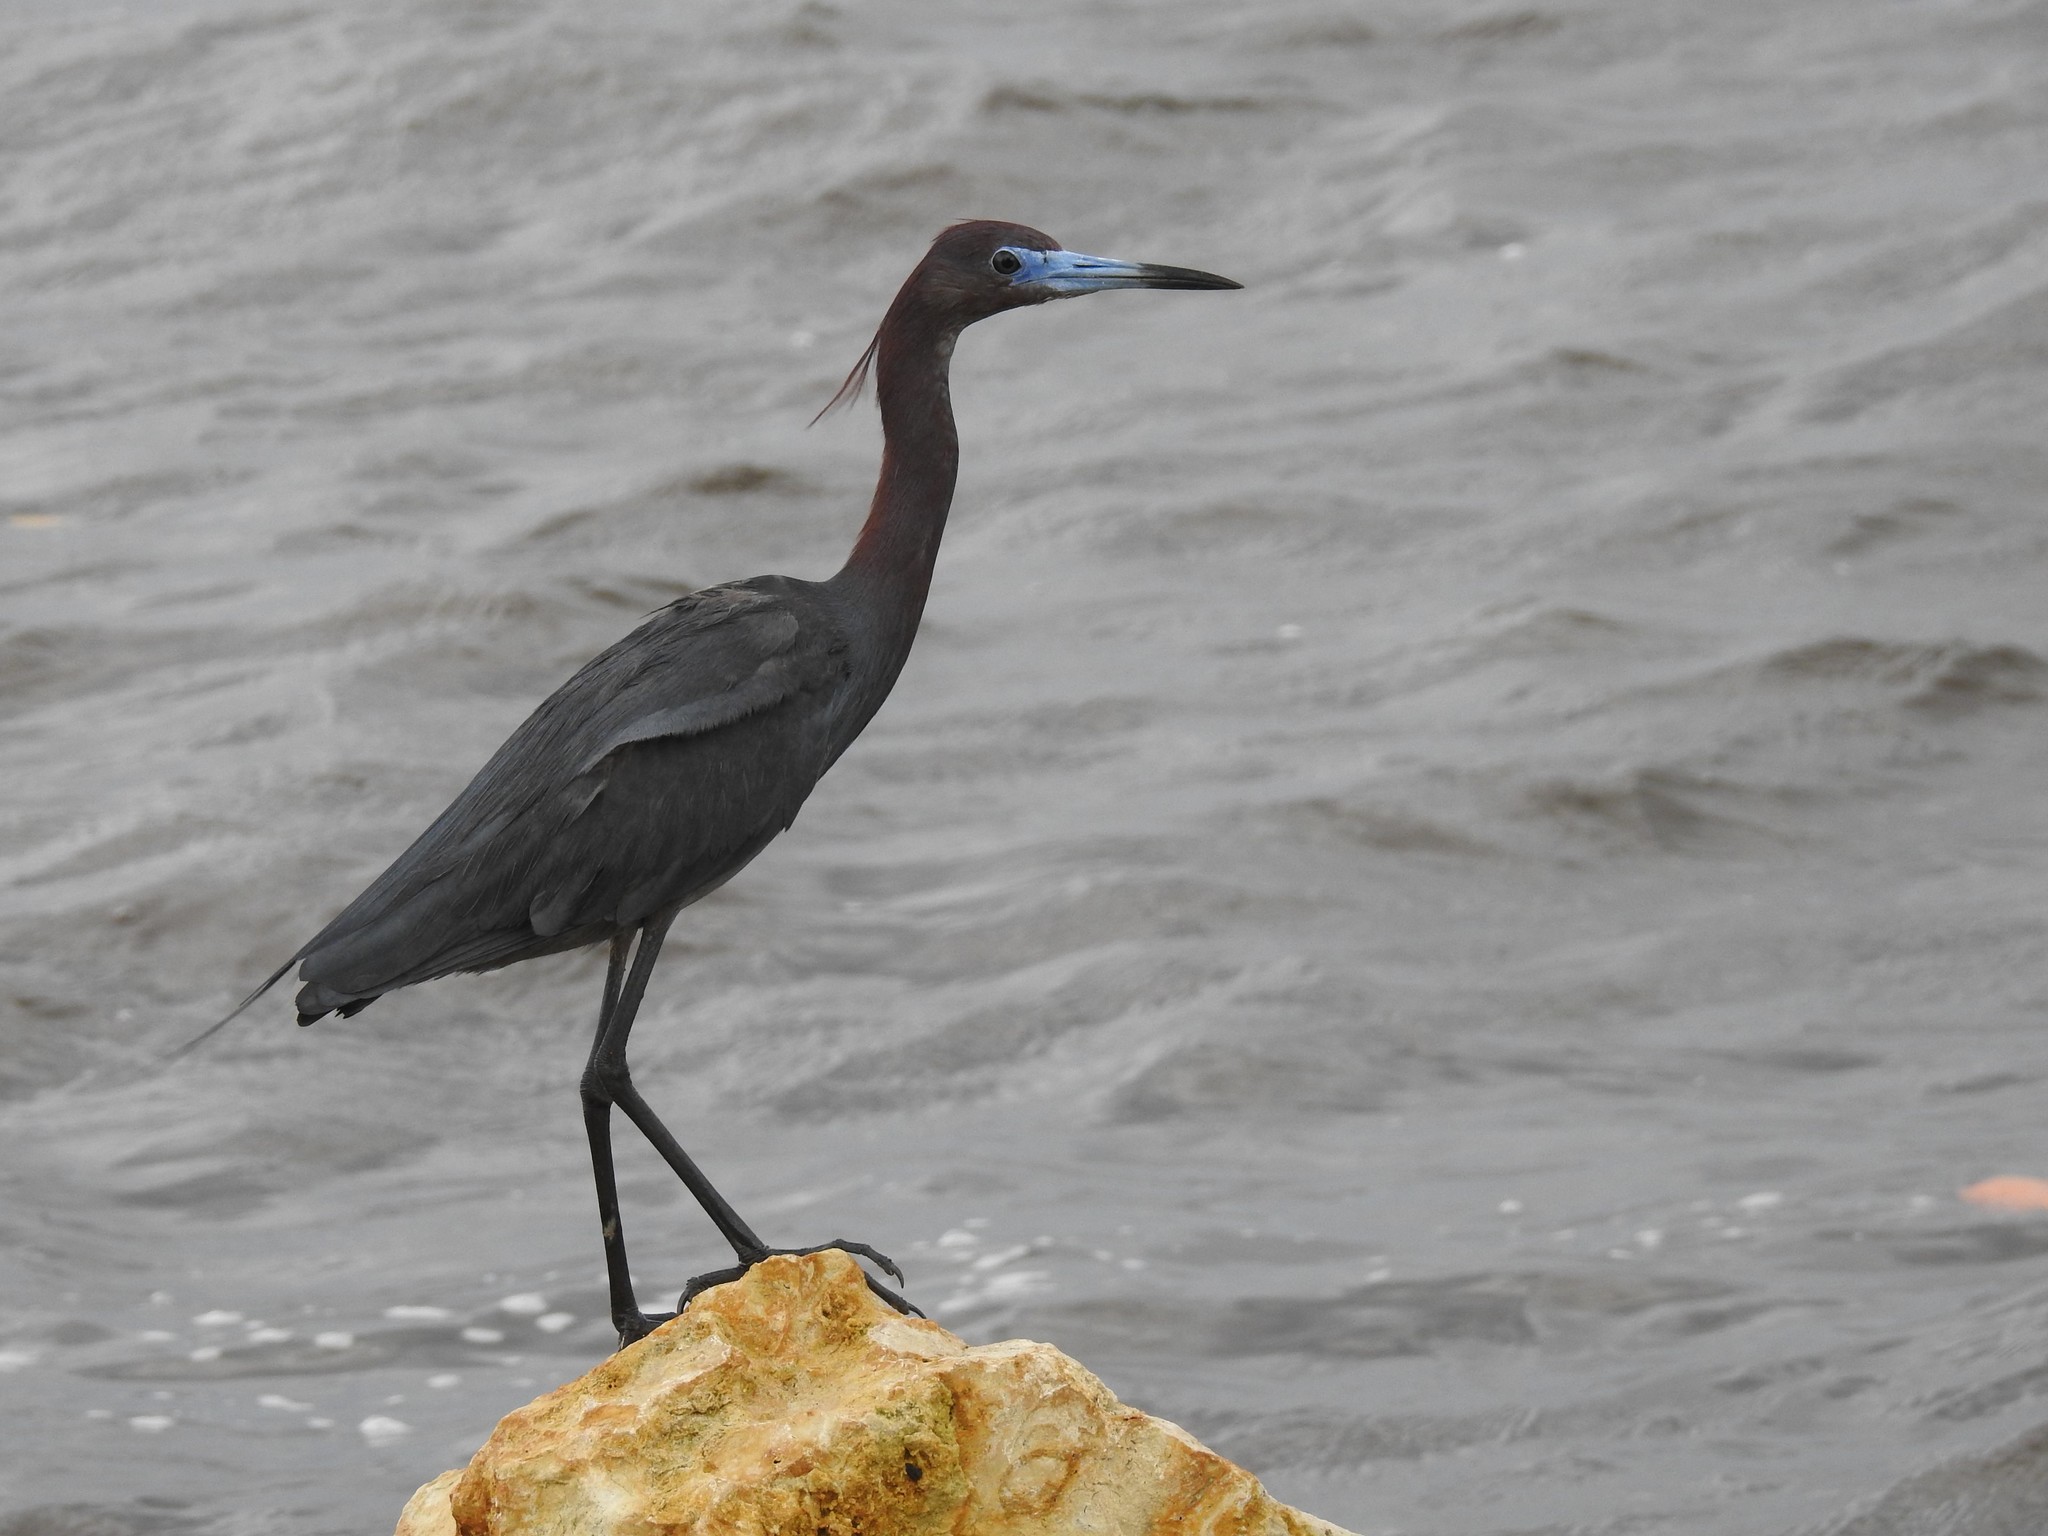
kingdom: Animalia
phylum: Chordata
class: Aves
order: Pelecaniformes
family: Ardeidae
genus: Egretta
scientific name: Egretta caerulea
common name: Little blue heron
